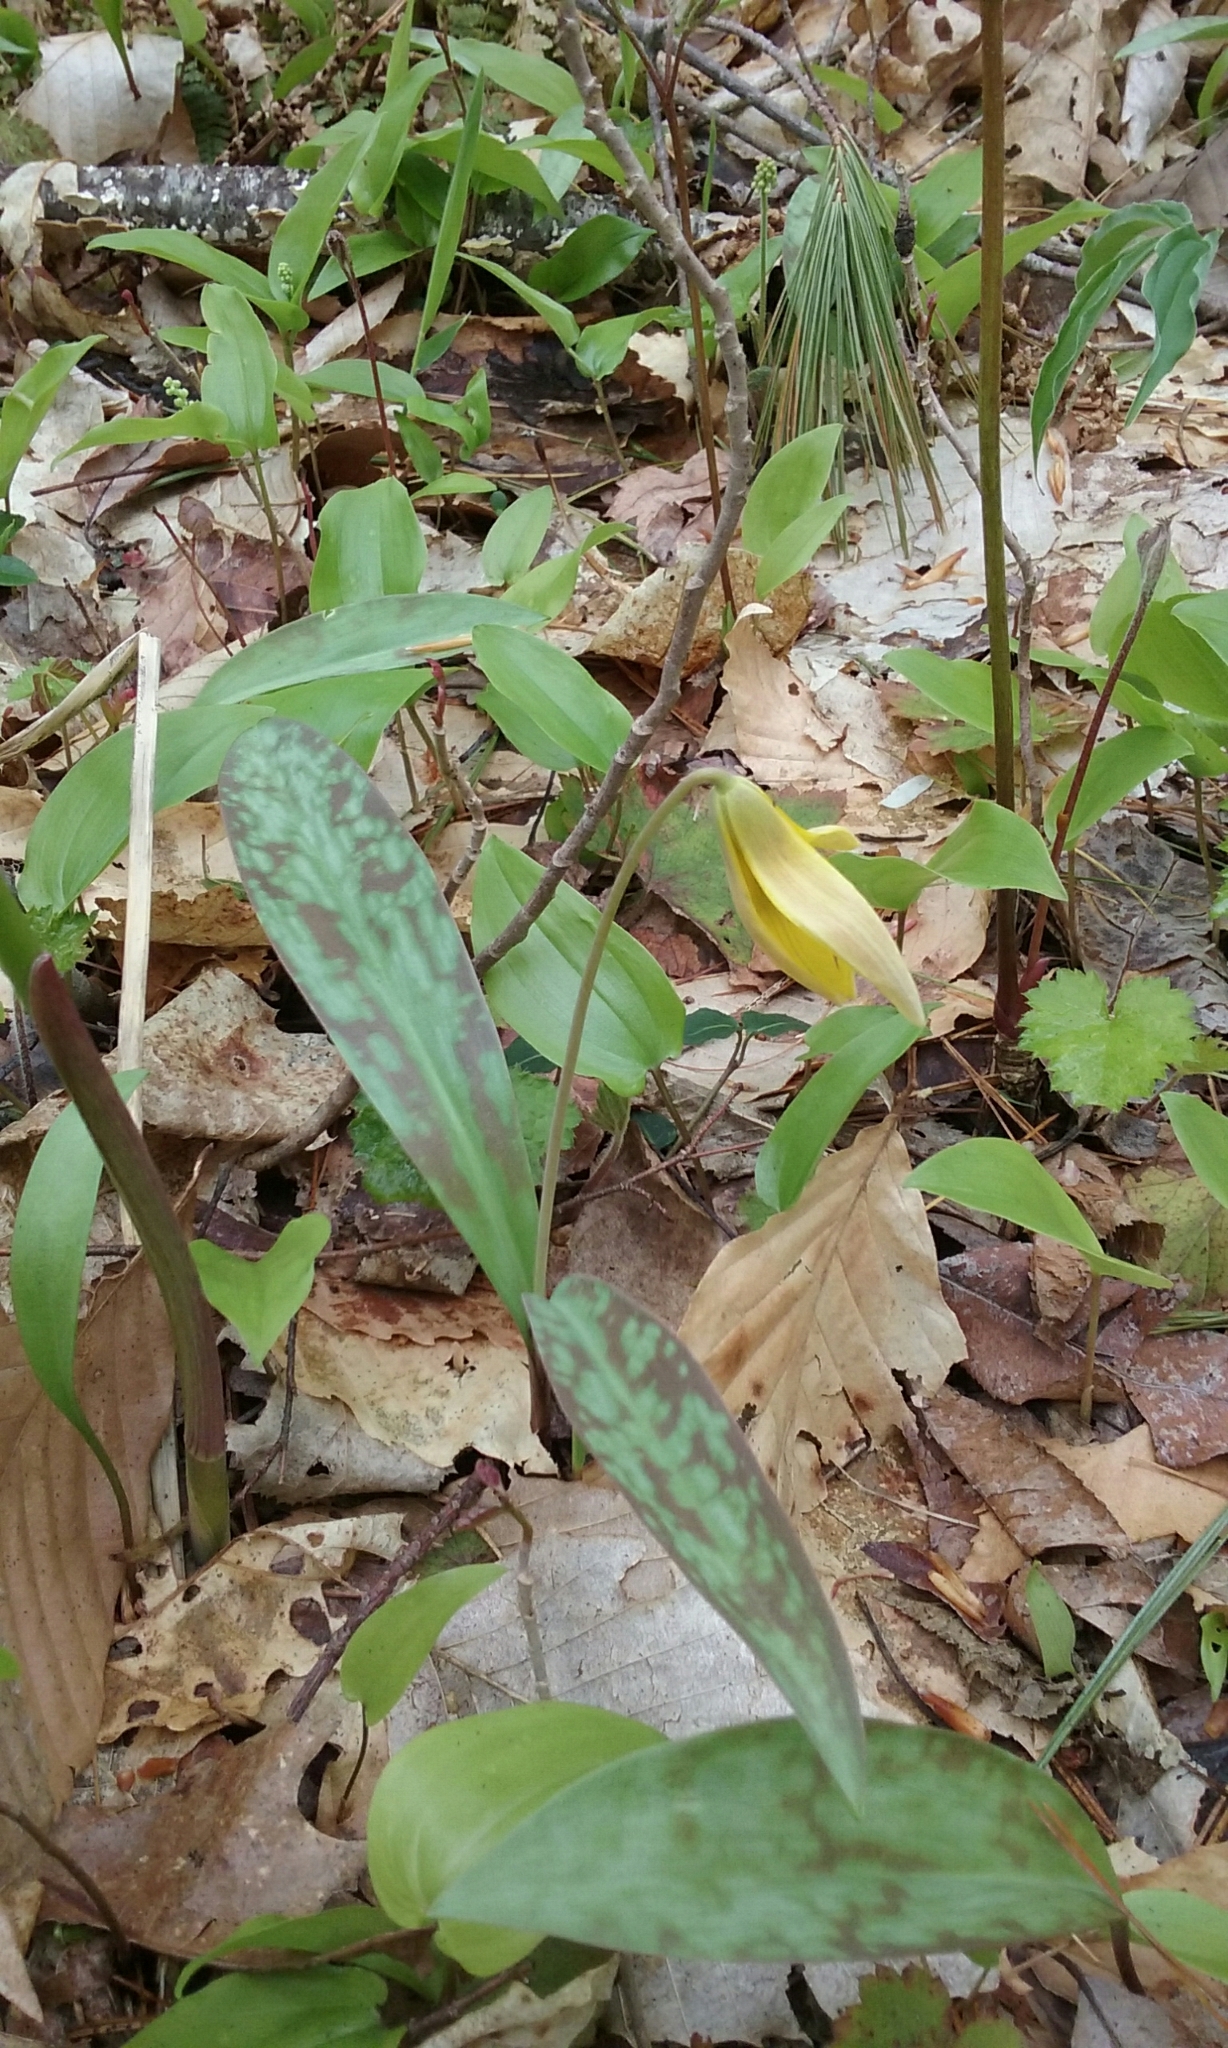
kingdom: Plantae
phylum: Tracheophyta
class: Liliopsida
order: Liliales
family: Liliaceae
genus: Erythronium
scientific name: Erythronium americanum
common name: Yellow adder's-tongue
